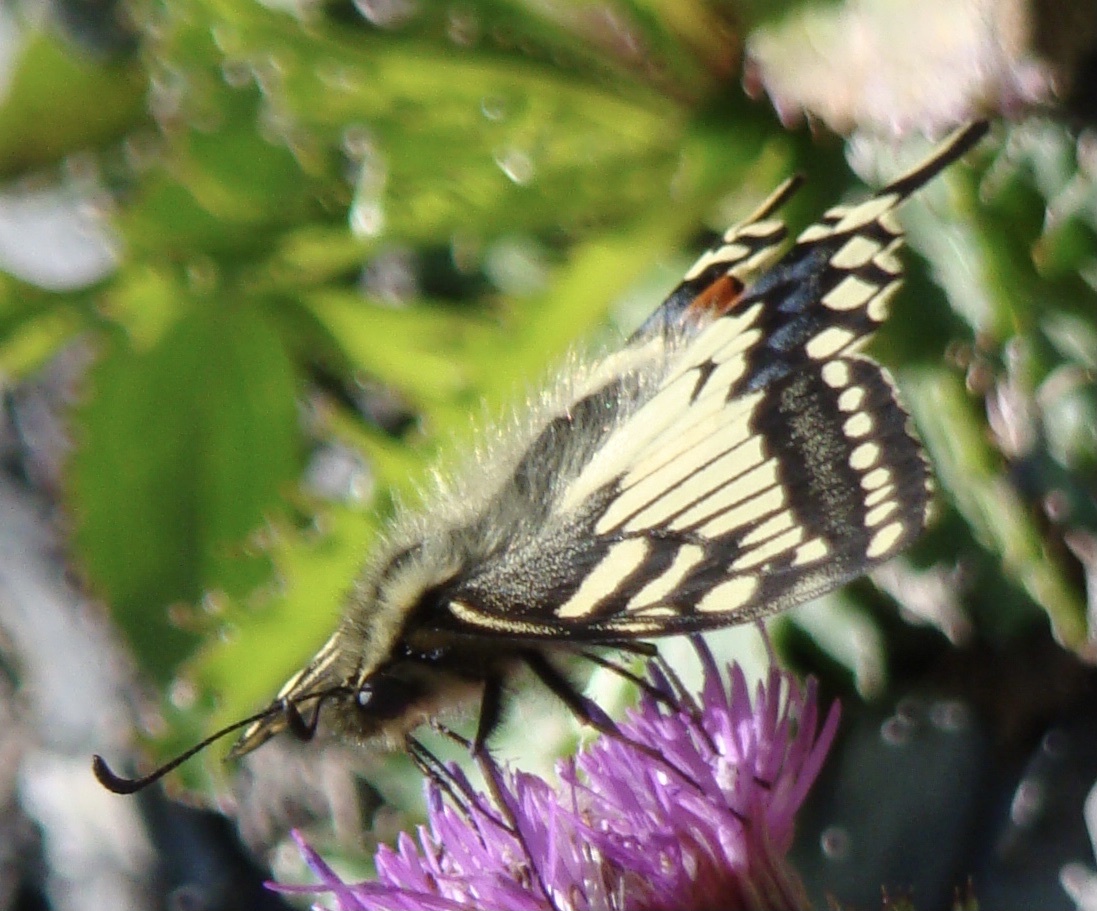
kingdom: Animalia
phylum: Arthropoda
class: Insecta
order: Lepidoptera
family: Papilionidae
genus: Papilio
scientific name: Papilio machaon
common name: Swallowtail
